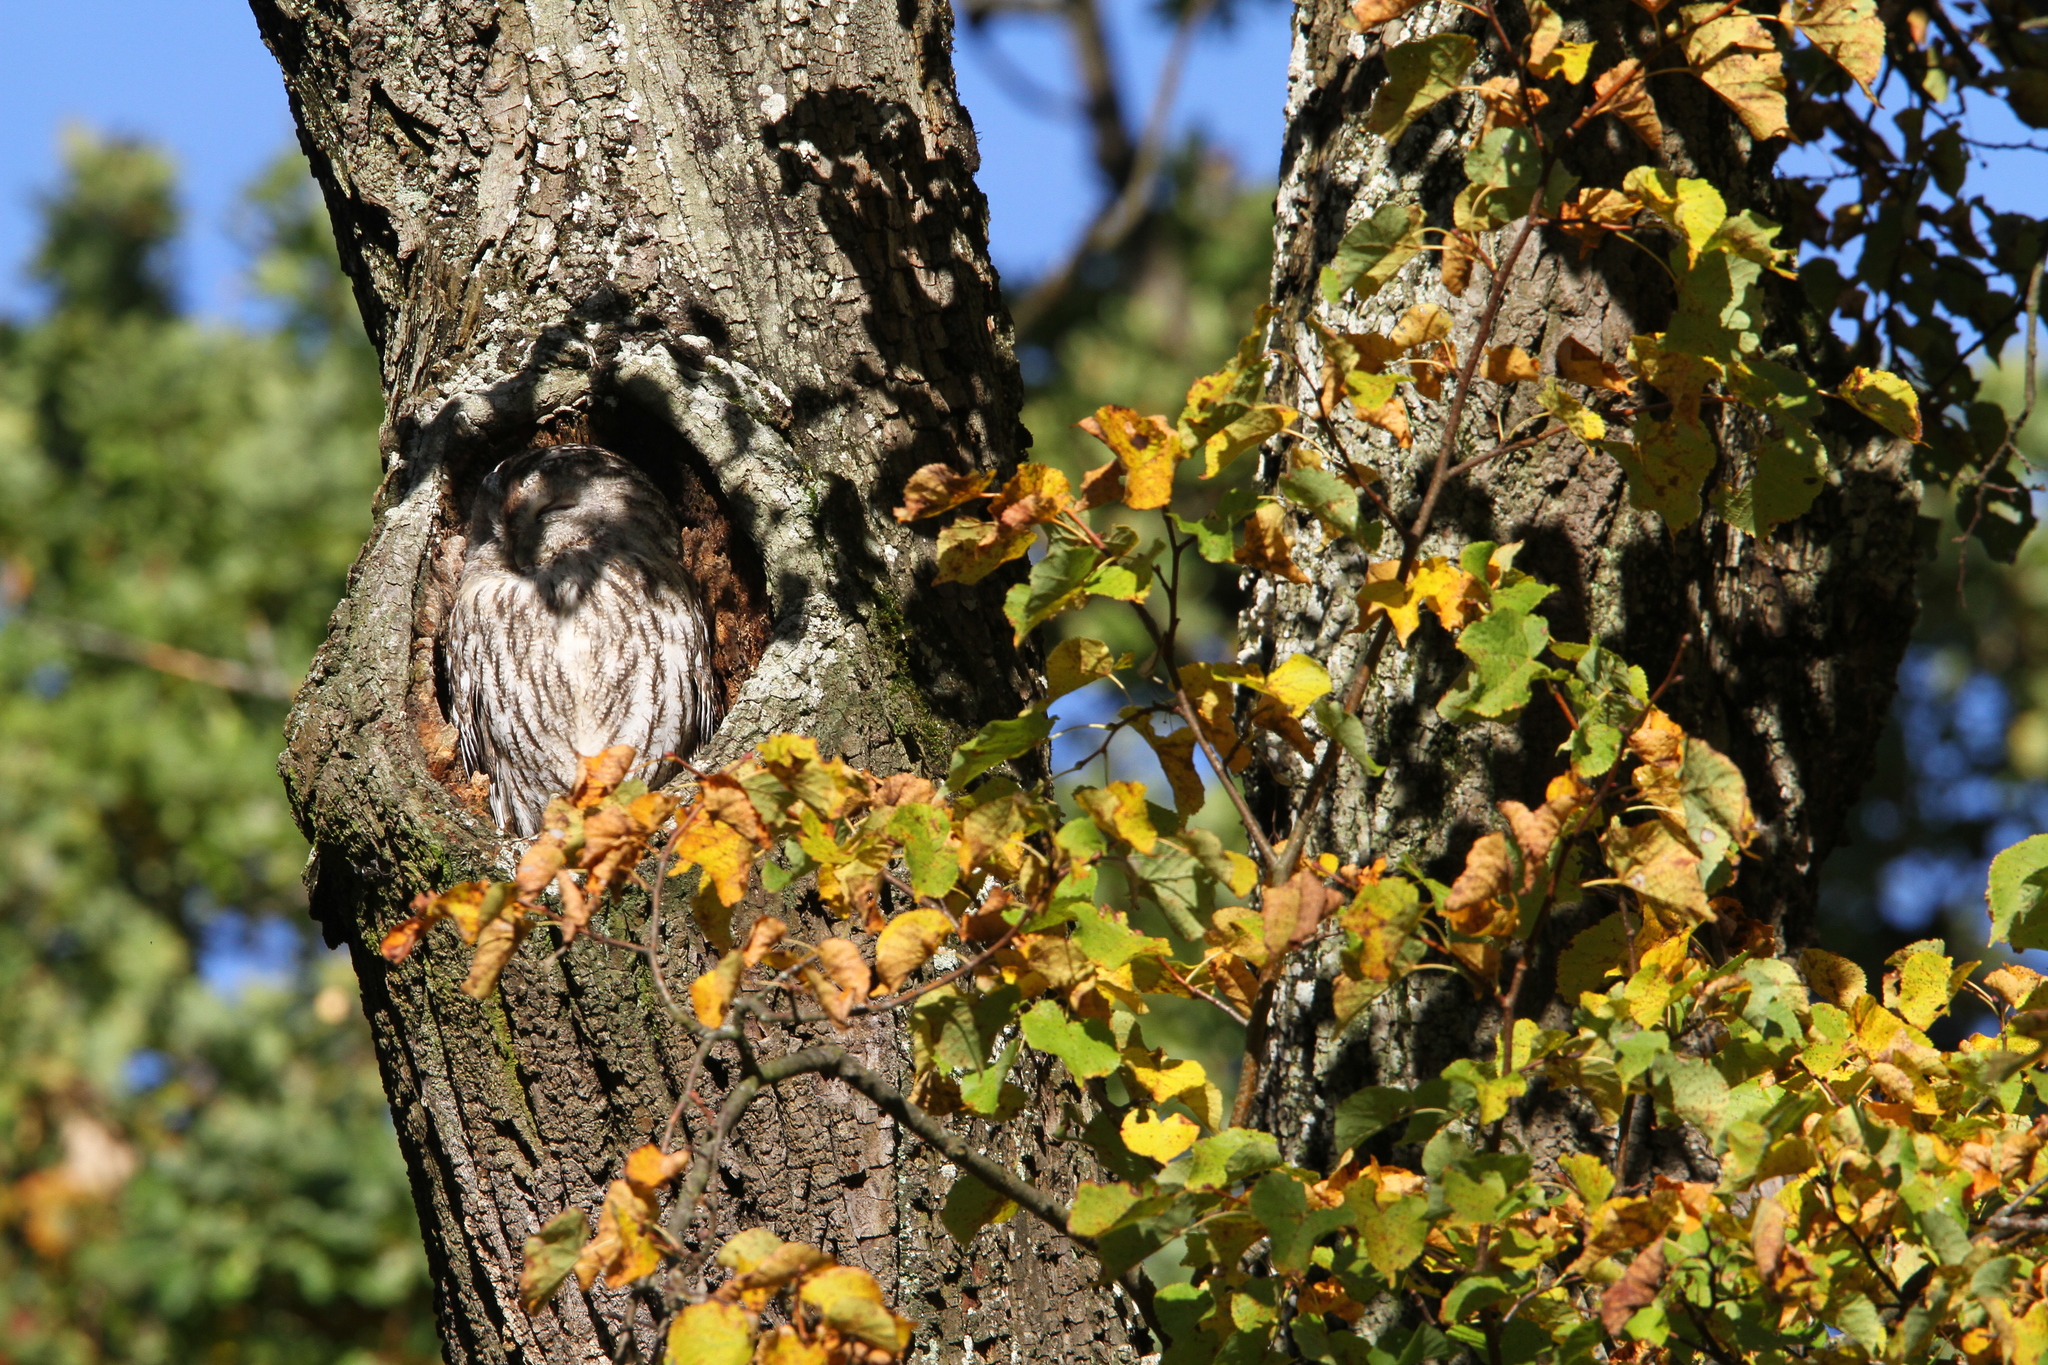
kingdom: Animalia
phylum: Chordata
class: Aves
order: Strigiformes
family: Strigidae
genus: Strix
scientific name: Strix aluco
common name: Tawny owl
